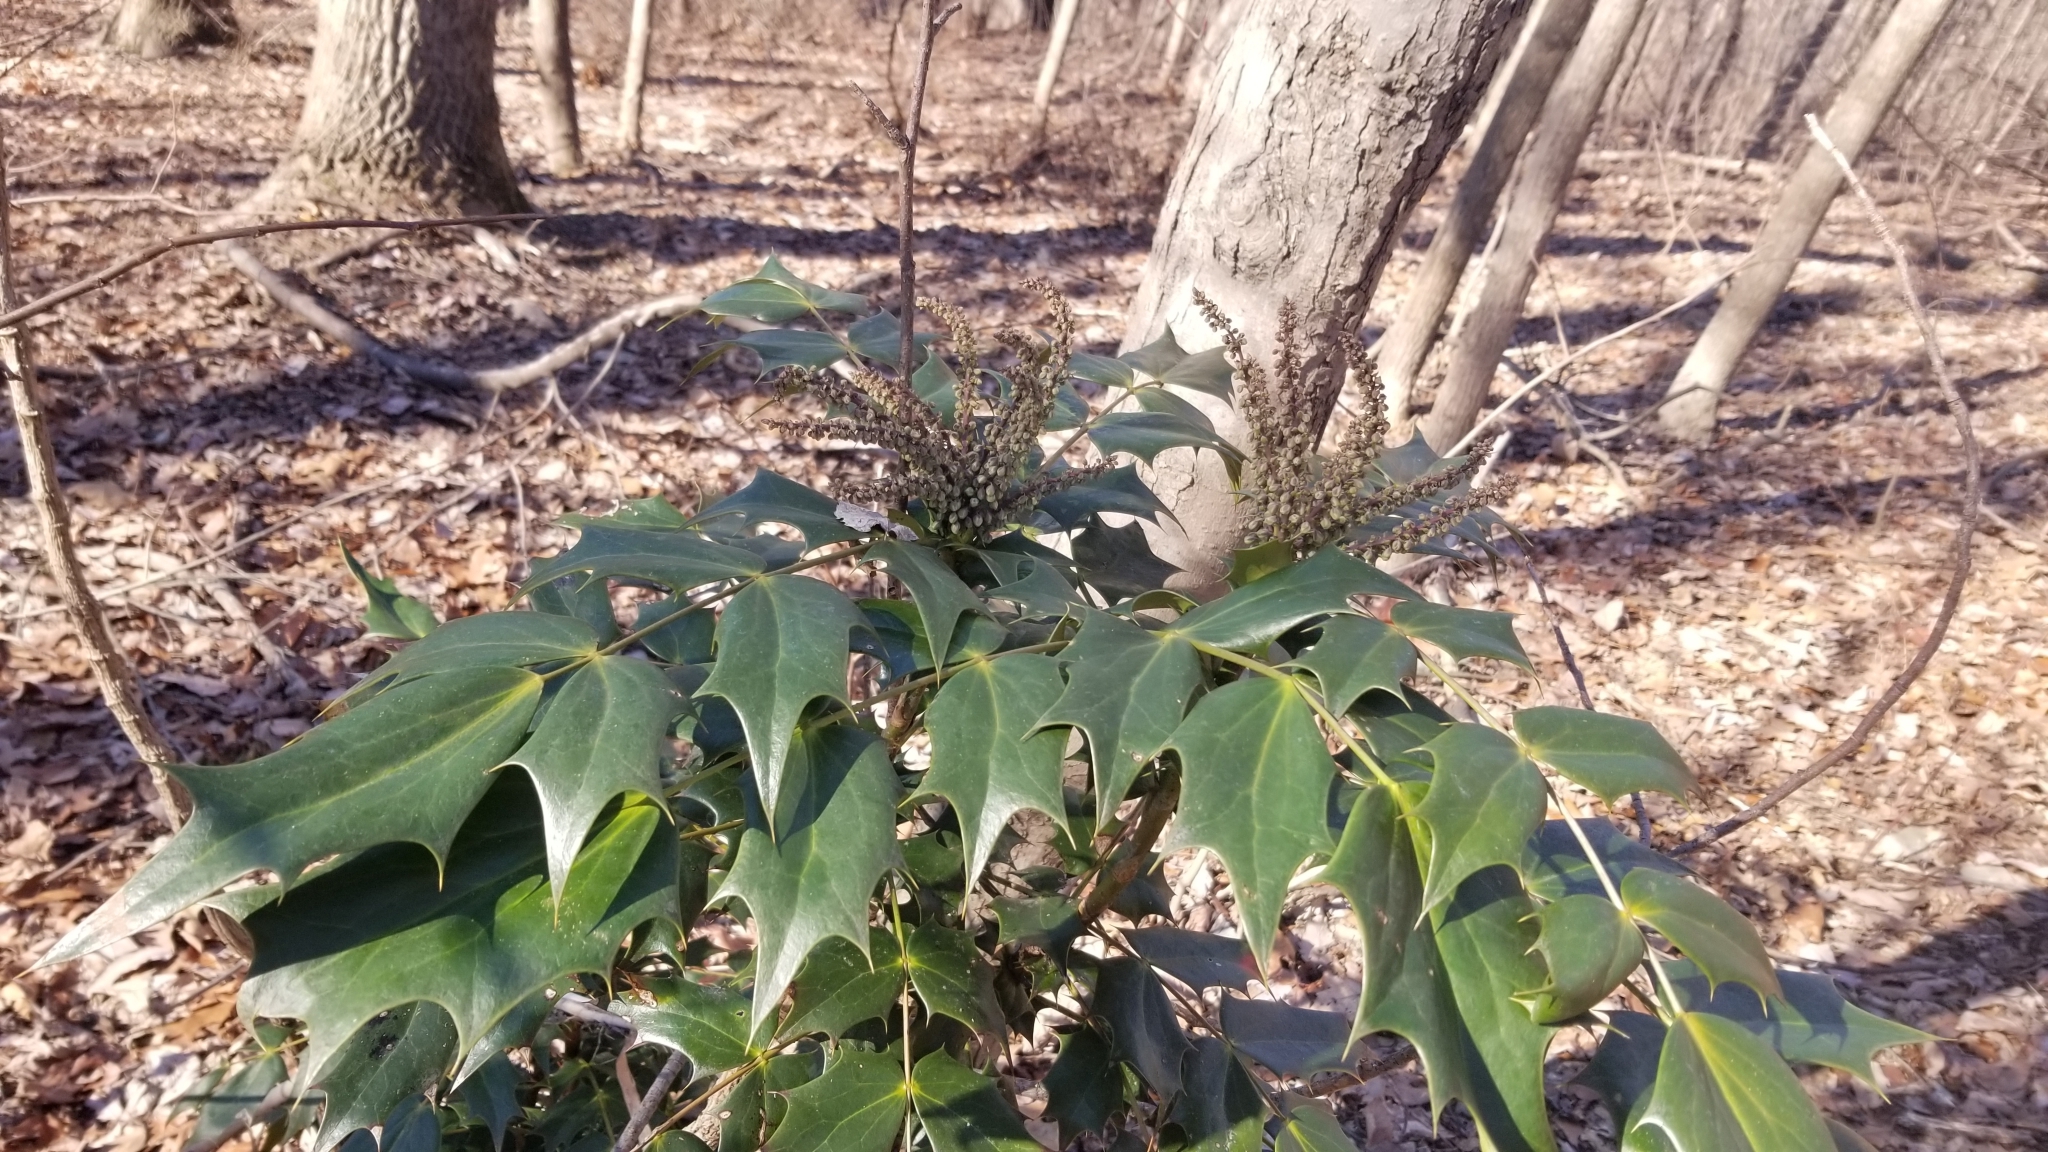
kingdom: Plantae
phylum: Tracheophyta
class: Magnoliopsida
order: Ranunculales
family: Berberidaceae
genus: Mahonia
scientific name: Mahonia bealei
